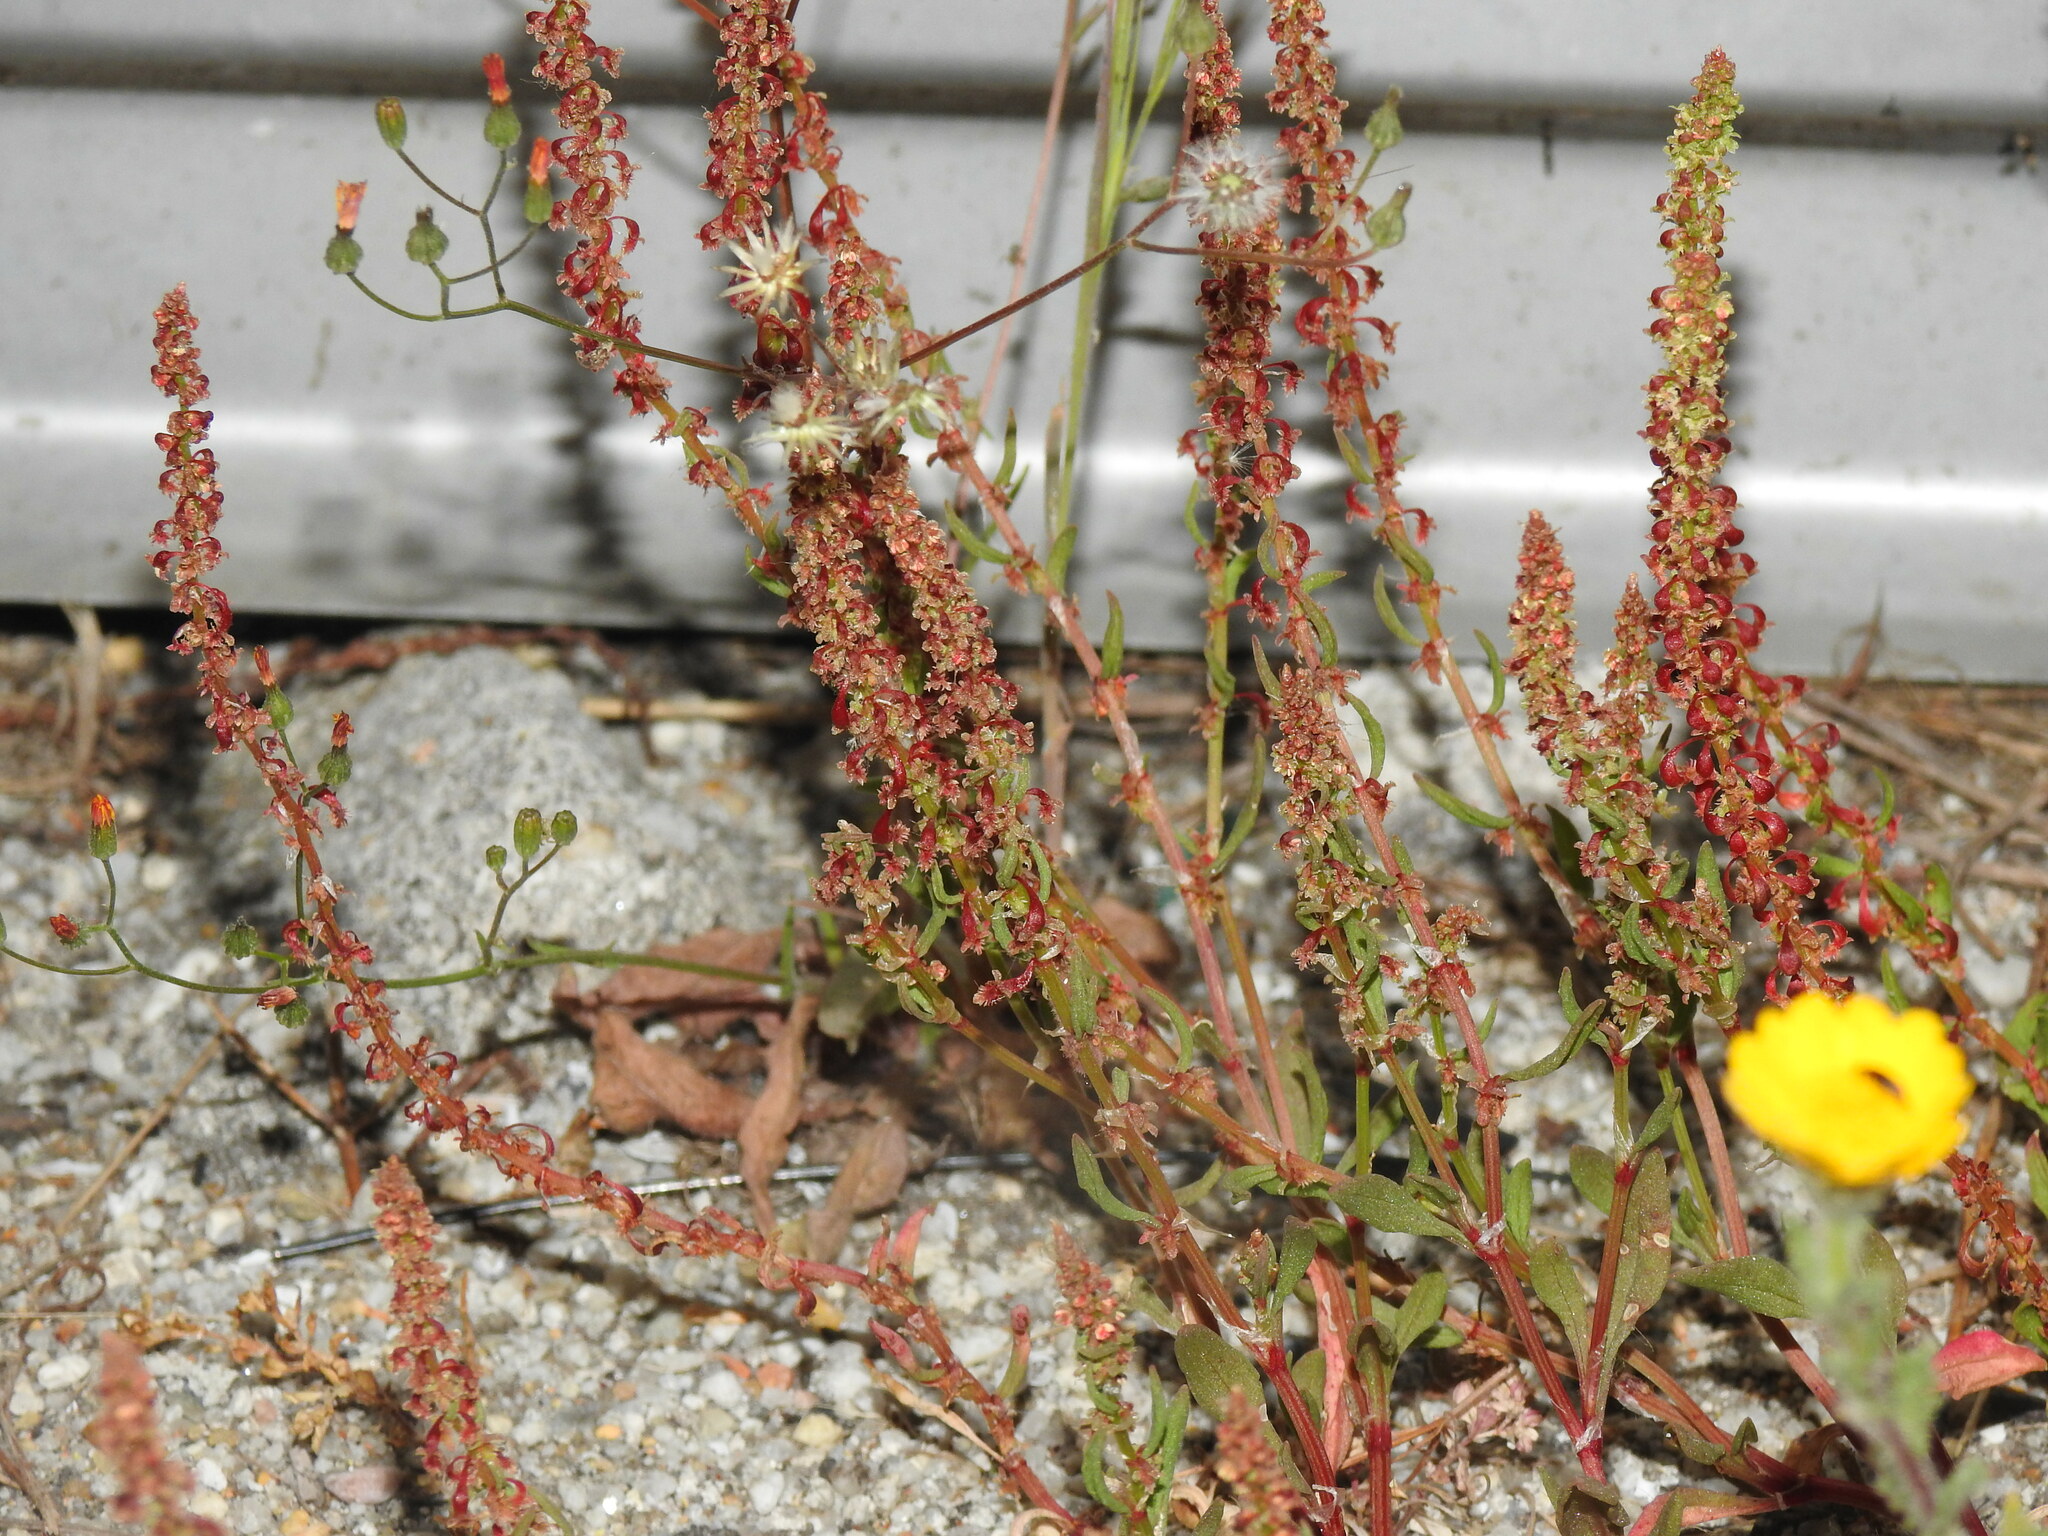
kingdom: Plantae
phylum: Tracheophyta
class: Magnoliopsida
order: Caryophyllales
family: Polygonaceae
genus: Rumex
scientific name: Rumex bucephalophorus
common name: Red dock
